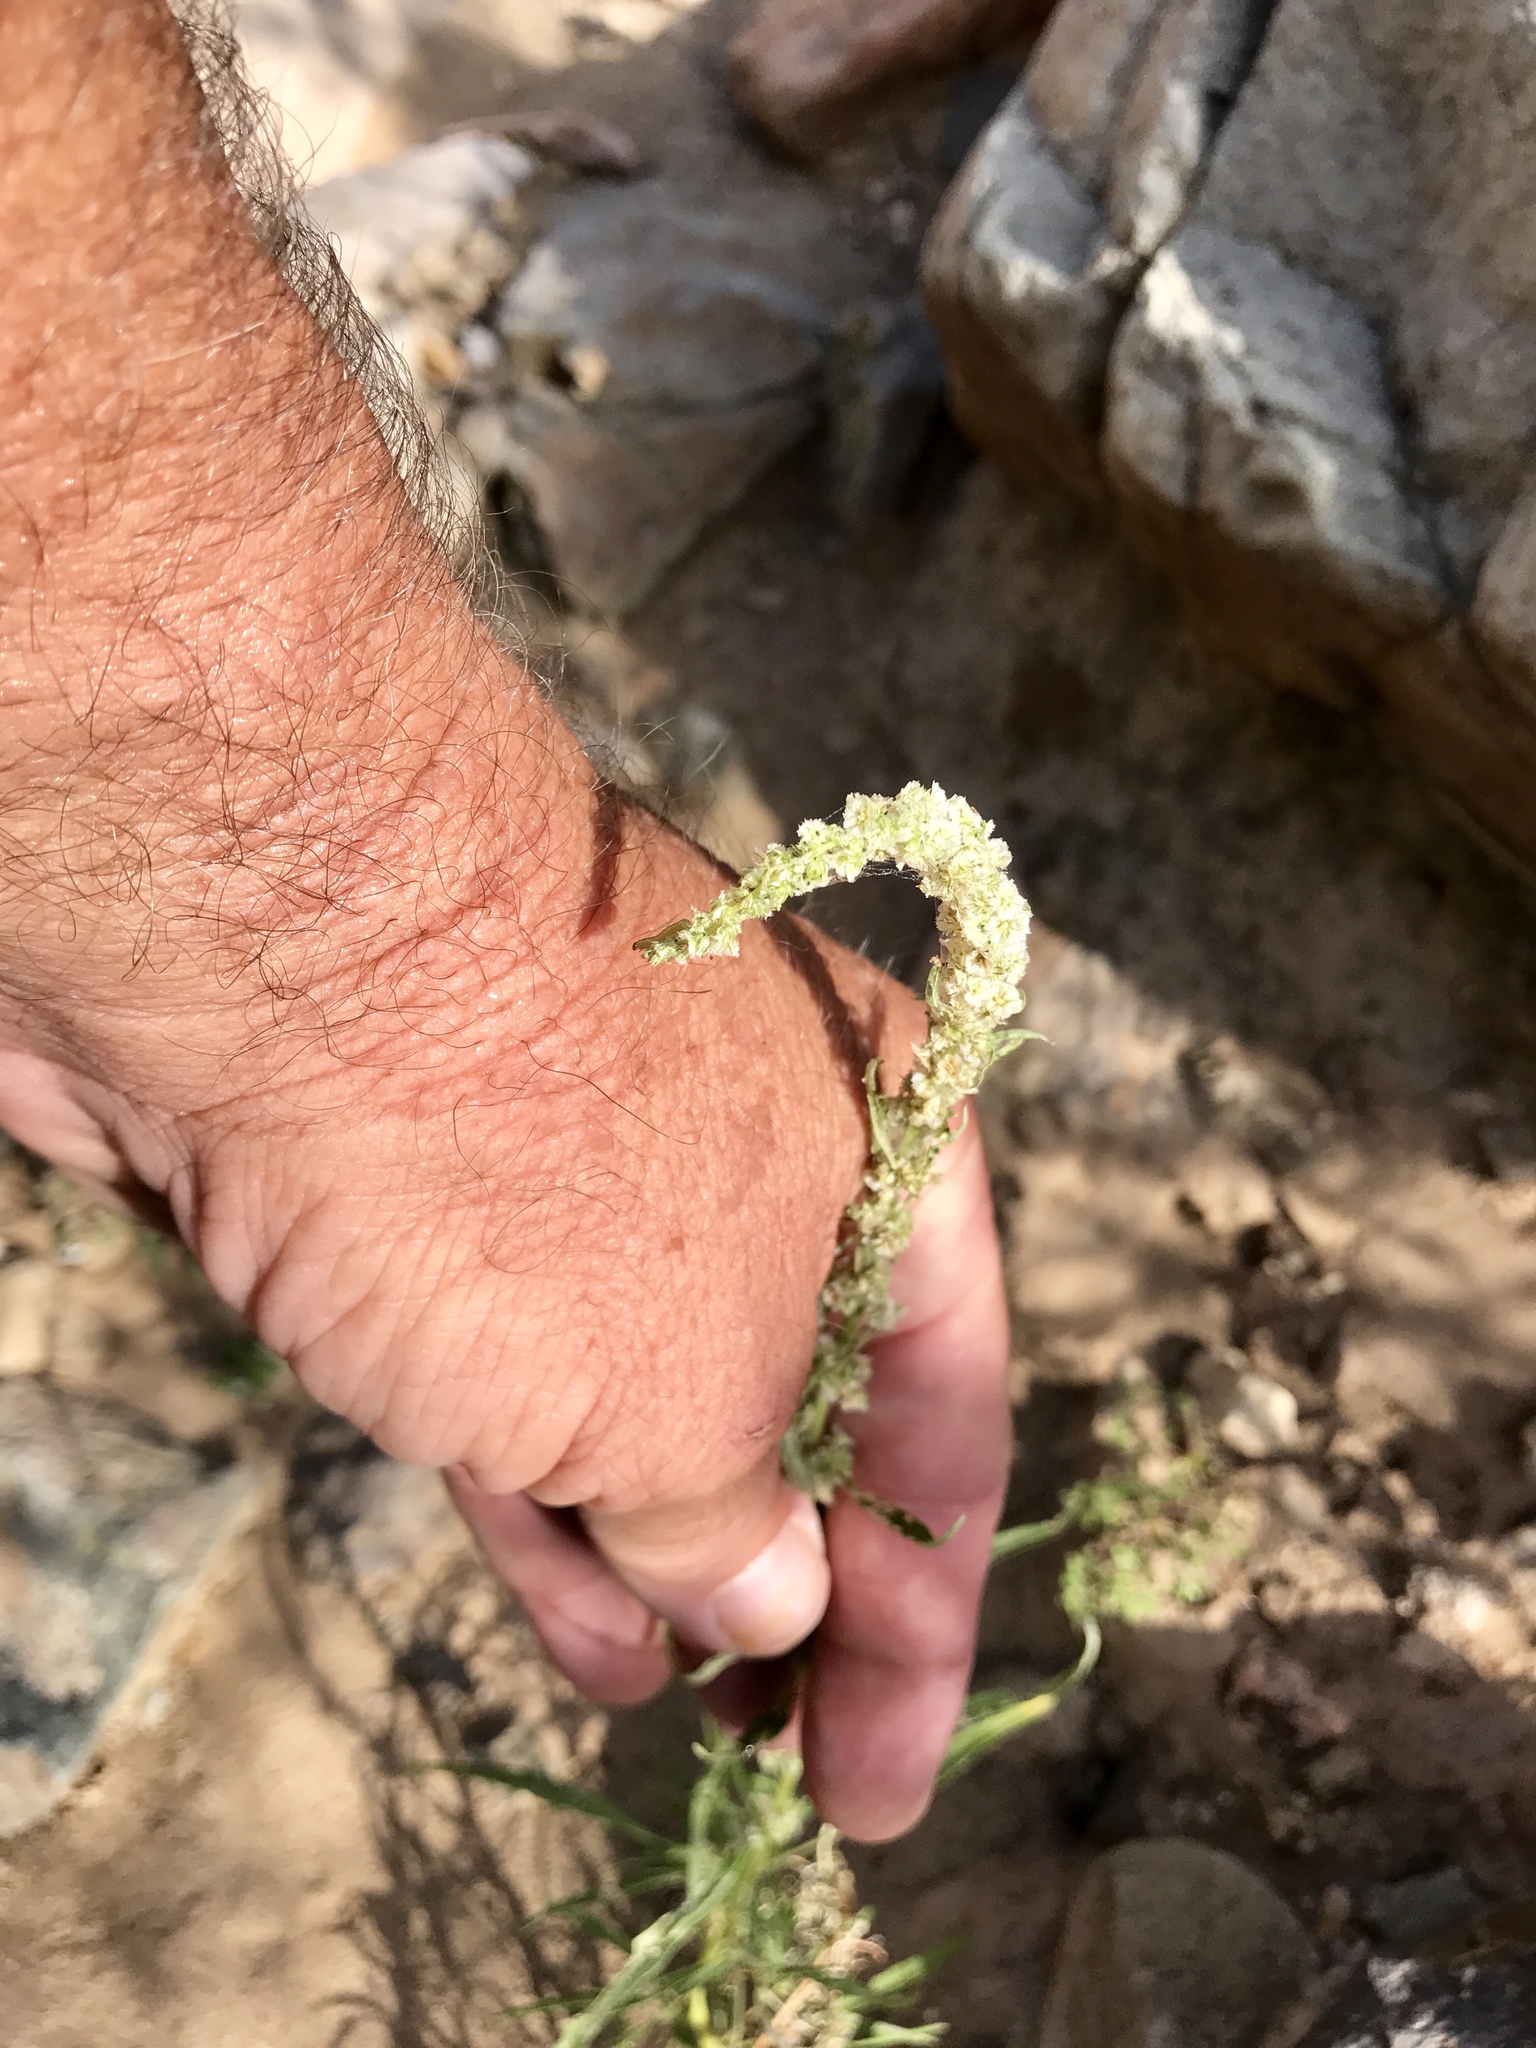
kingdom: Plantae
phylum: Tracheophyta
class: Magnoliopsida
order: Caryophyllales
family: Amaranthaceae
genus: Amaranthus
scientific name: Amaranthus fimbriatus
